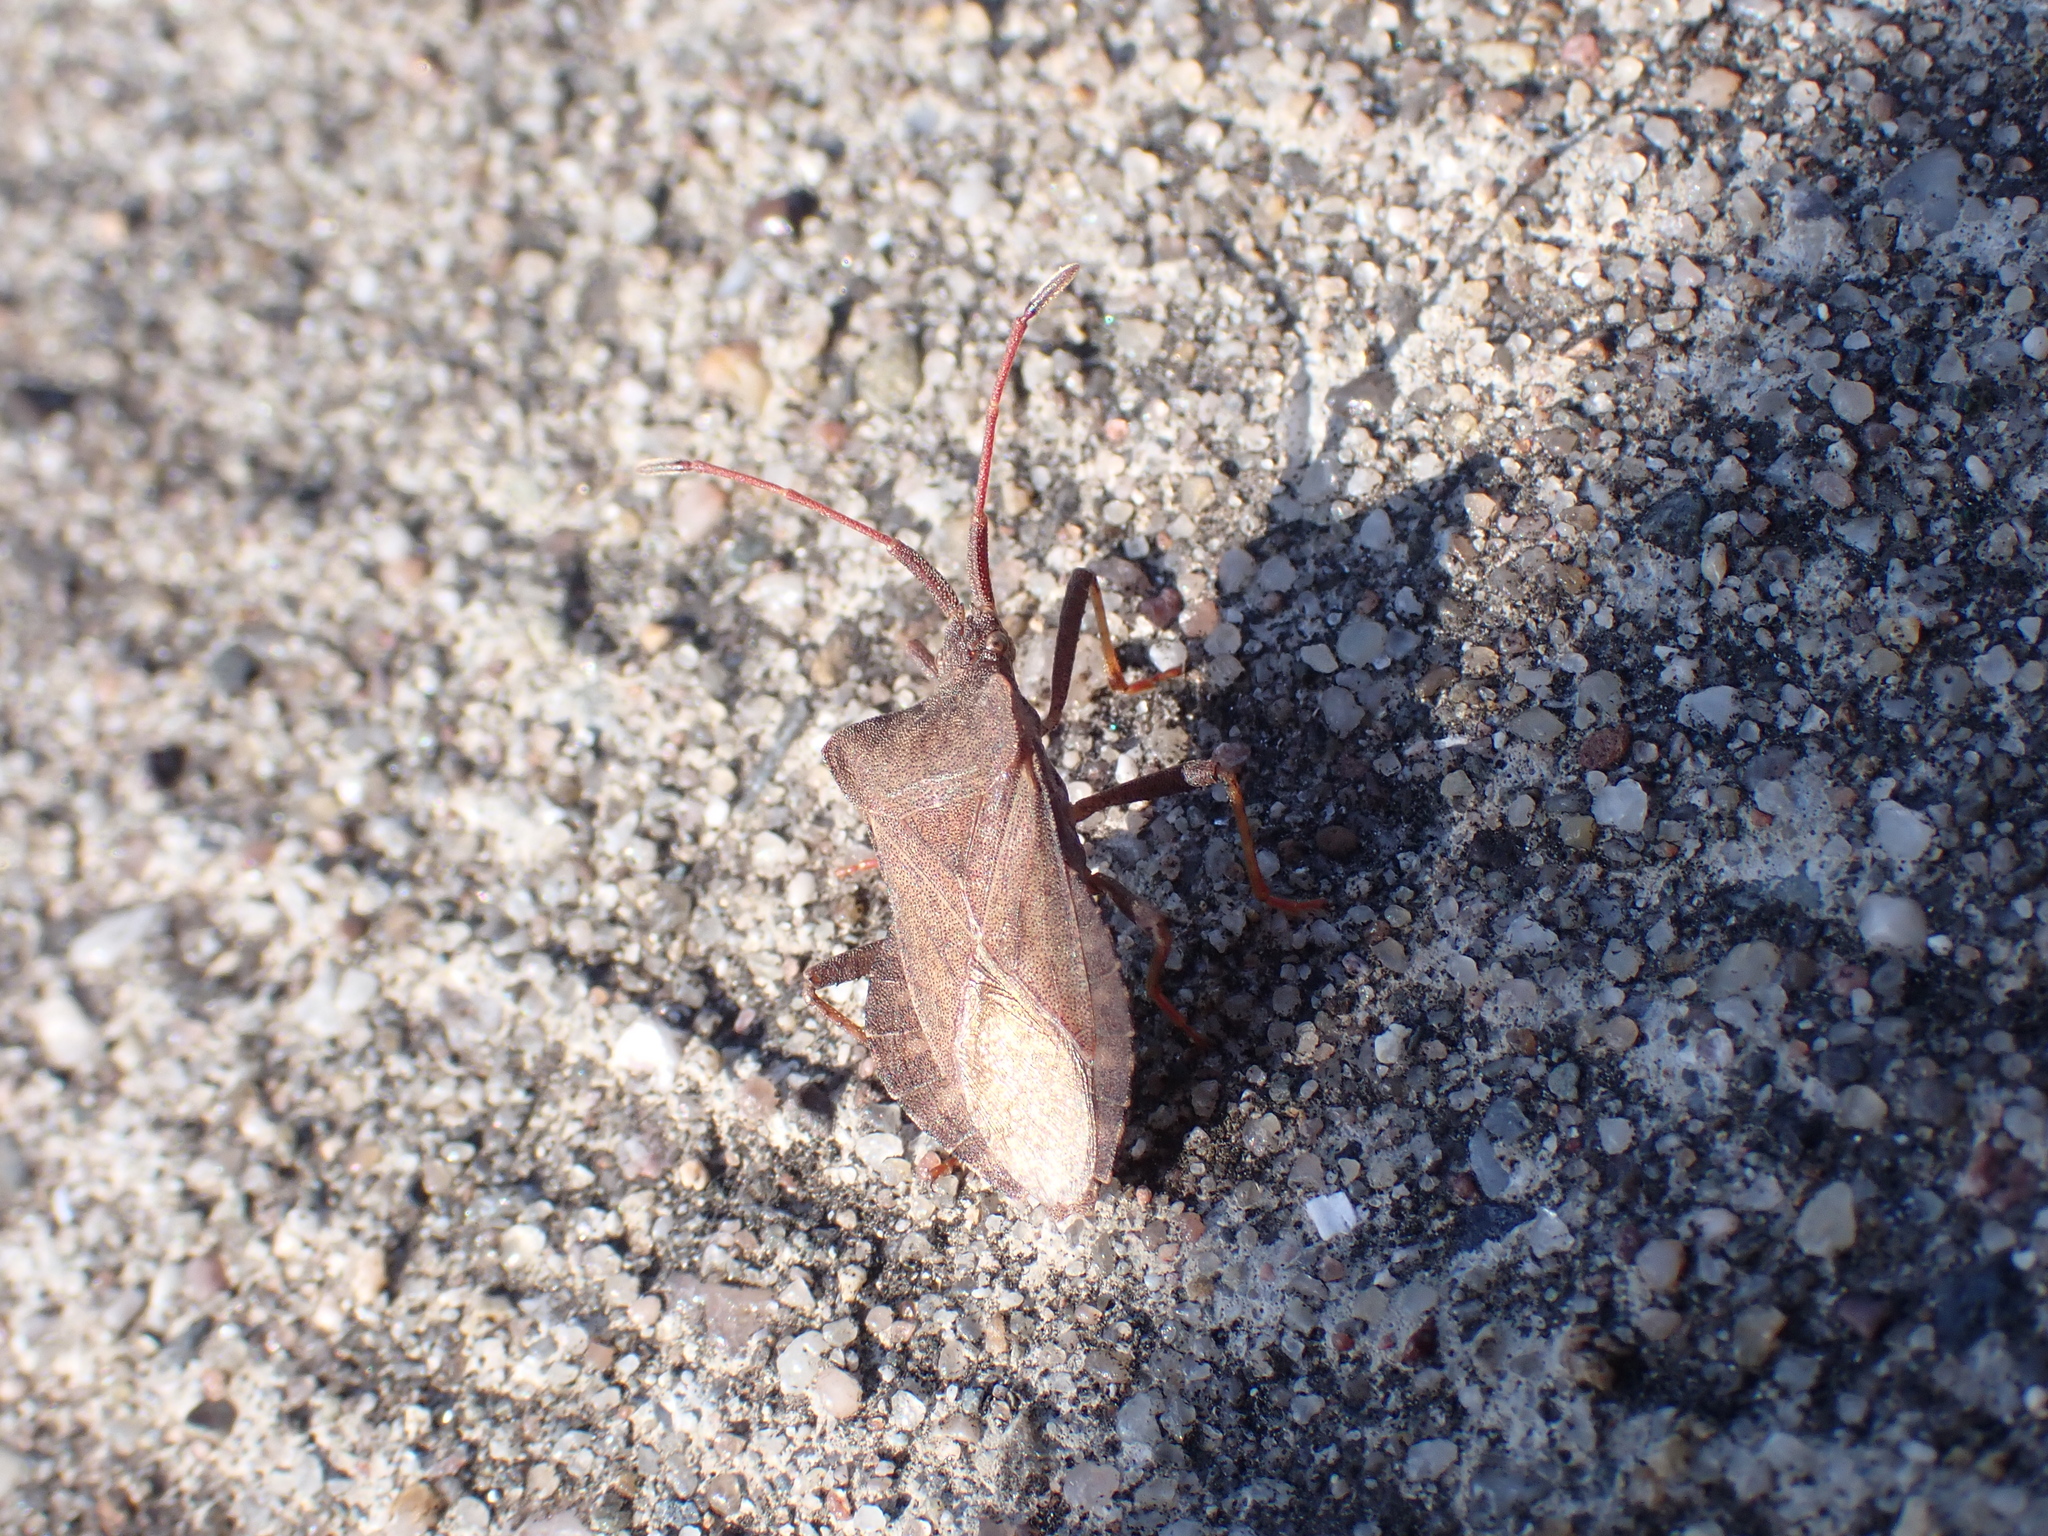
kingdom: Animalia
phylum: Arthropoda
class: Insecta
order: Hemiptera
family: Coreidae
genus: Coreus
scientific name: Coreus marginatus
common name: Dock bug
